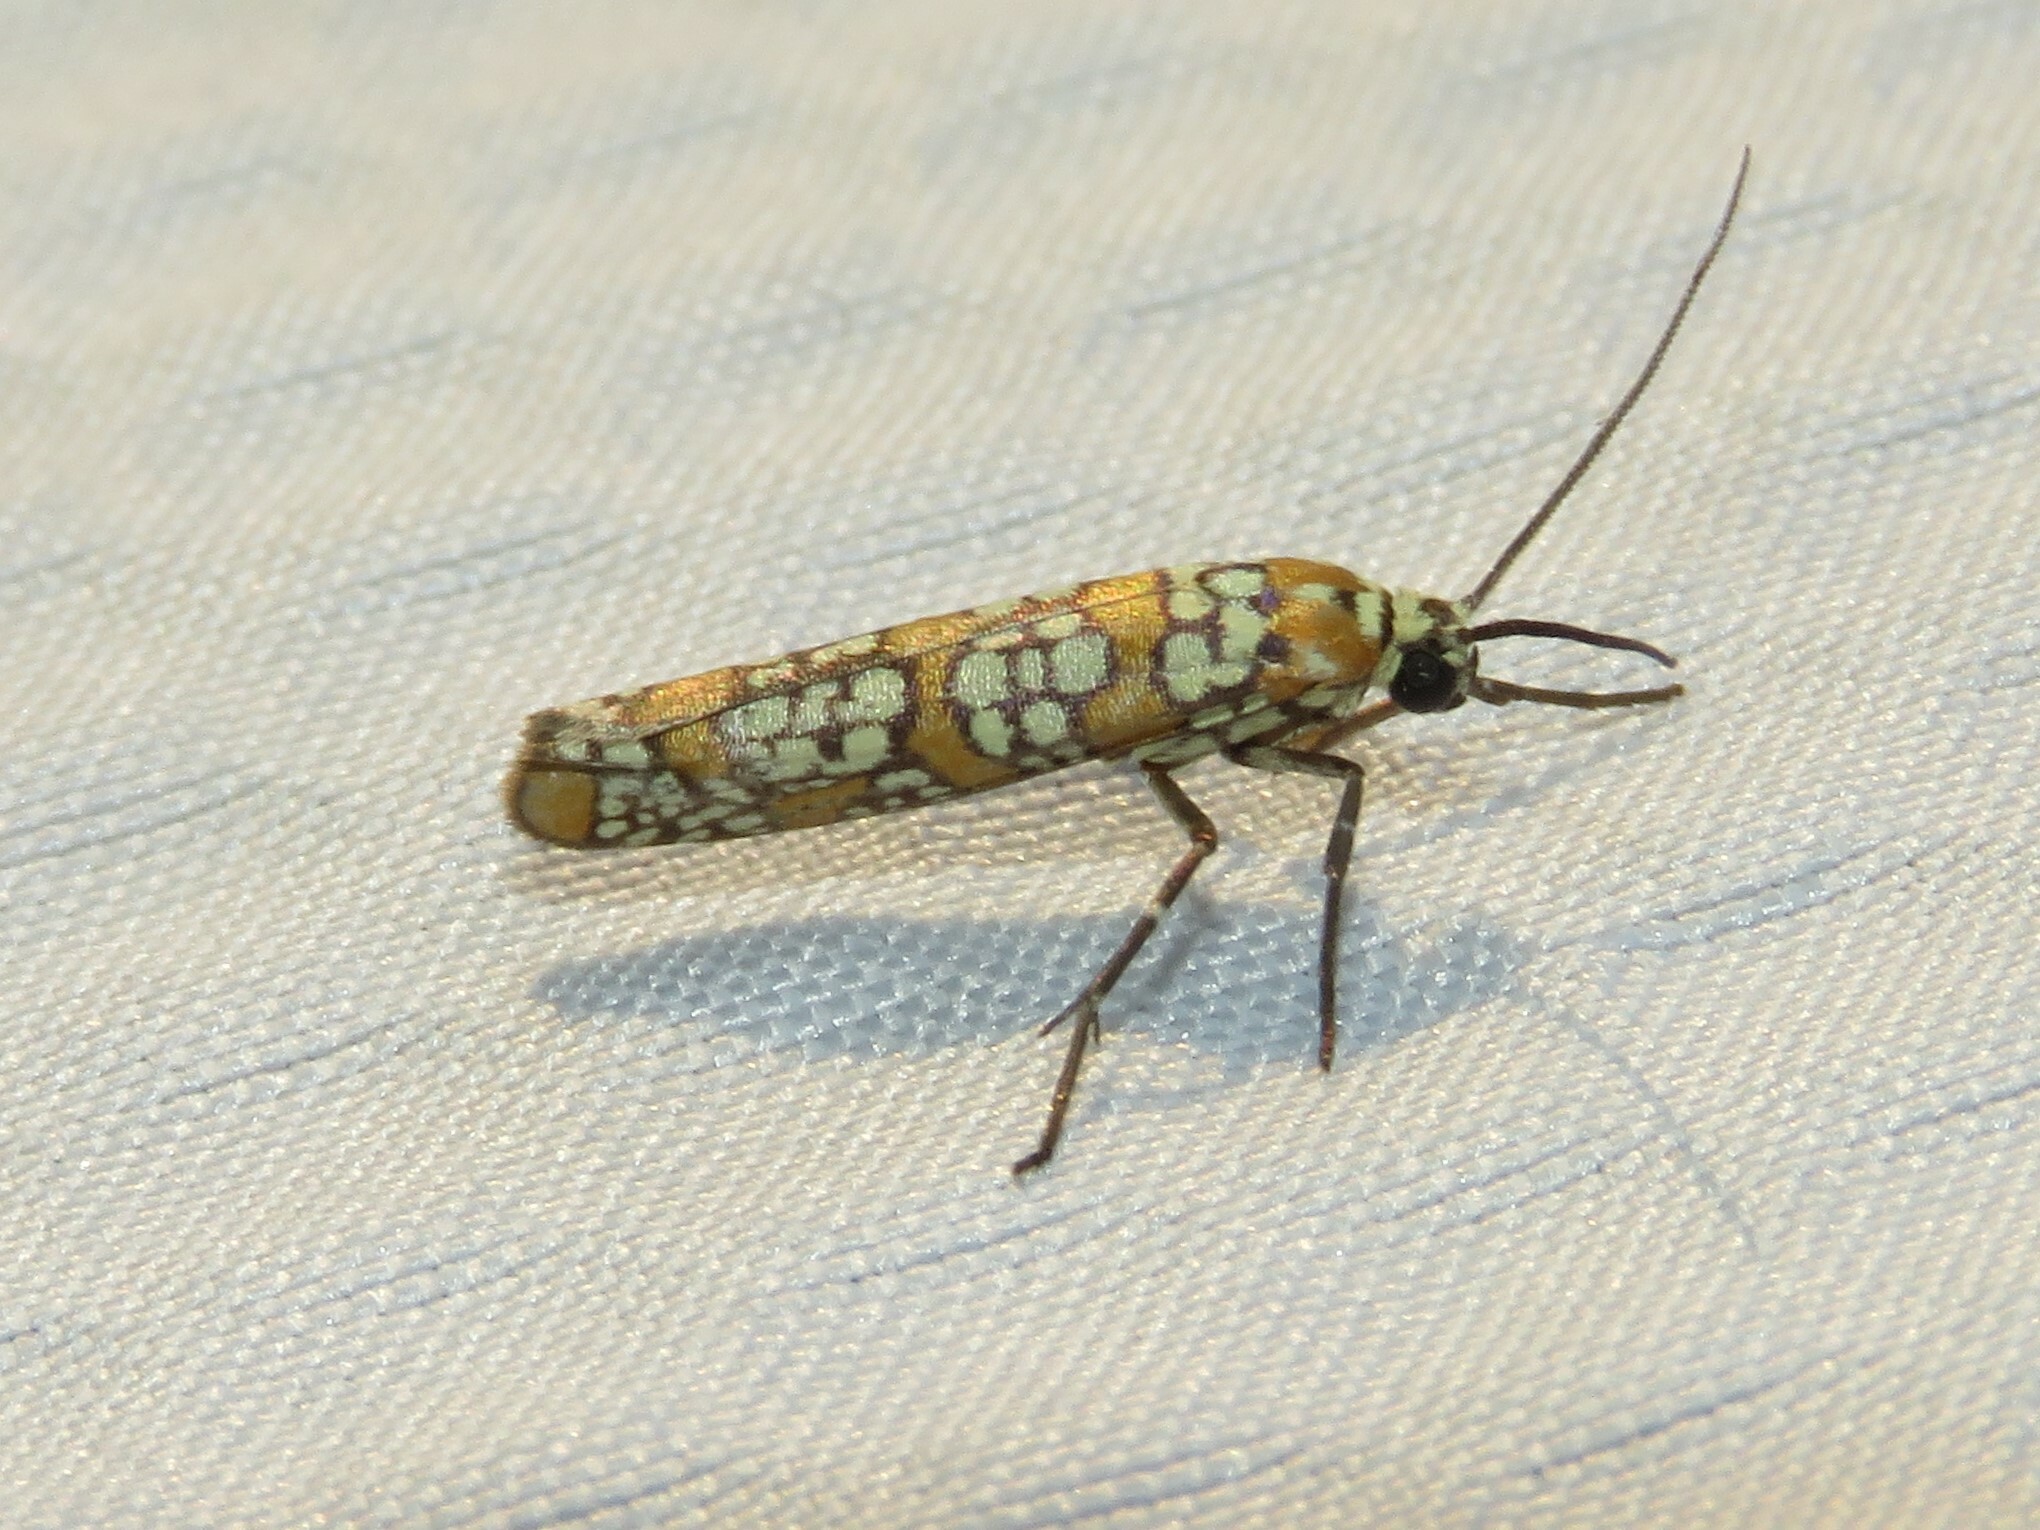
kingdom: Animalia
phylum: Arthropoda
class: Insecta
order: Lepidoptera
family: Attevidae
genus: Atteva
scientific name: Atteva punctella
